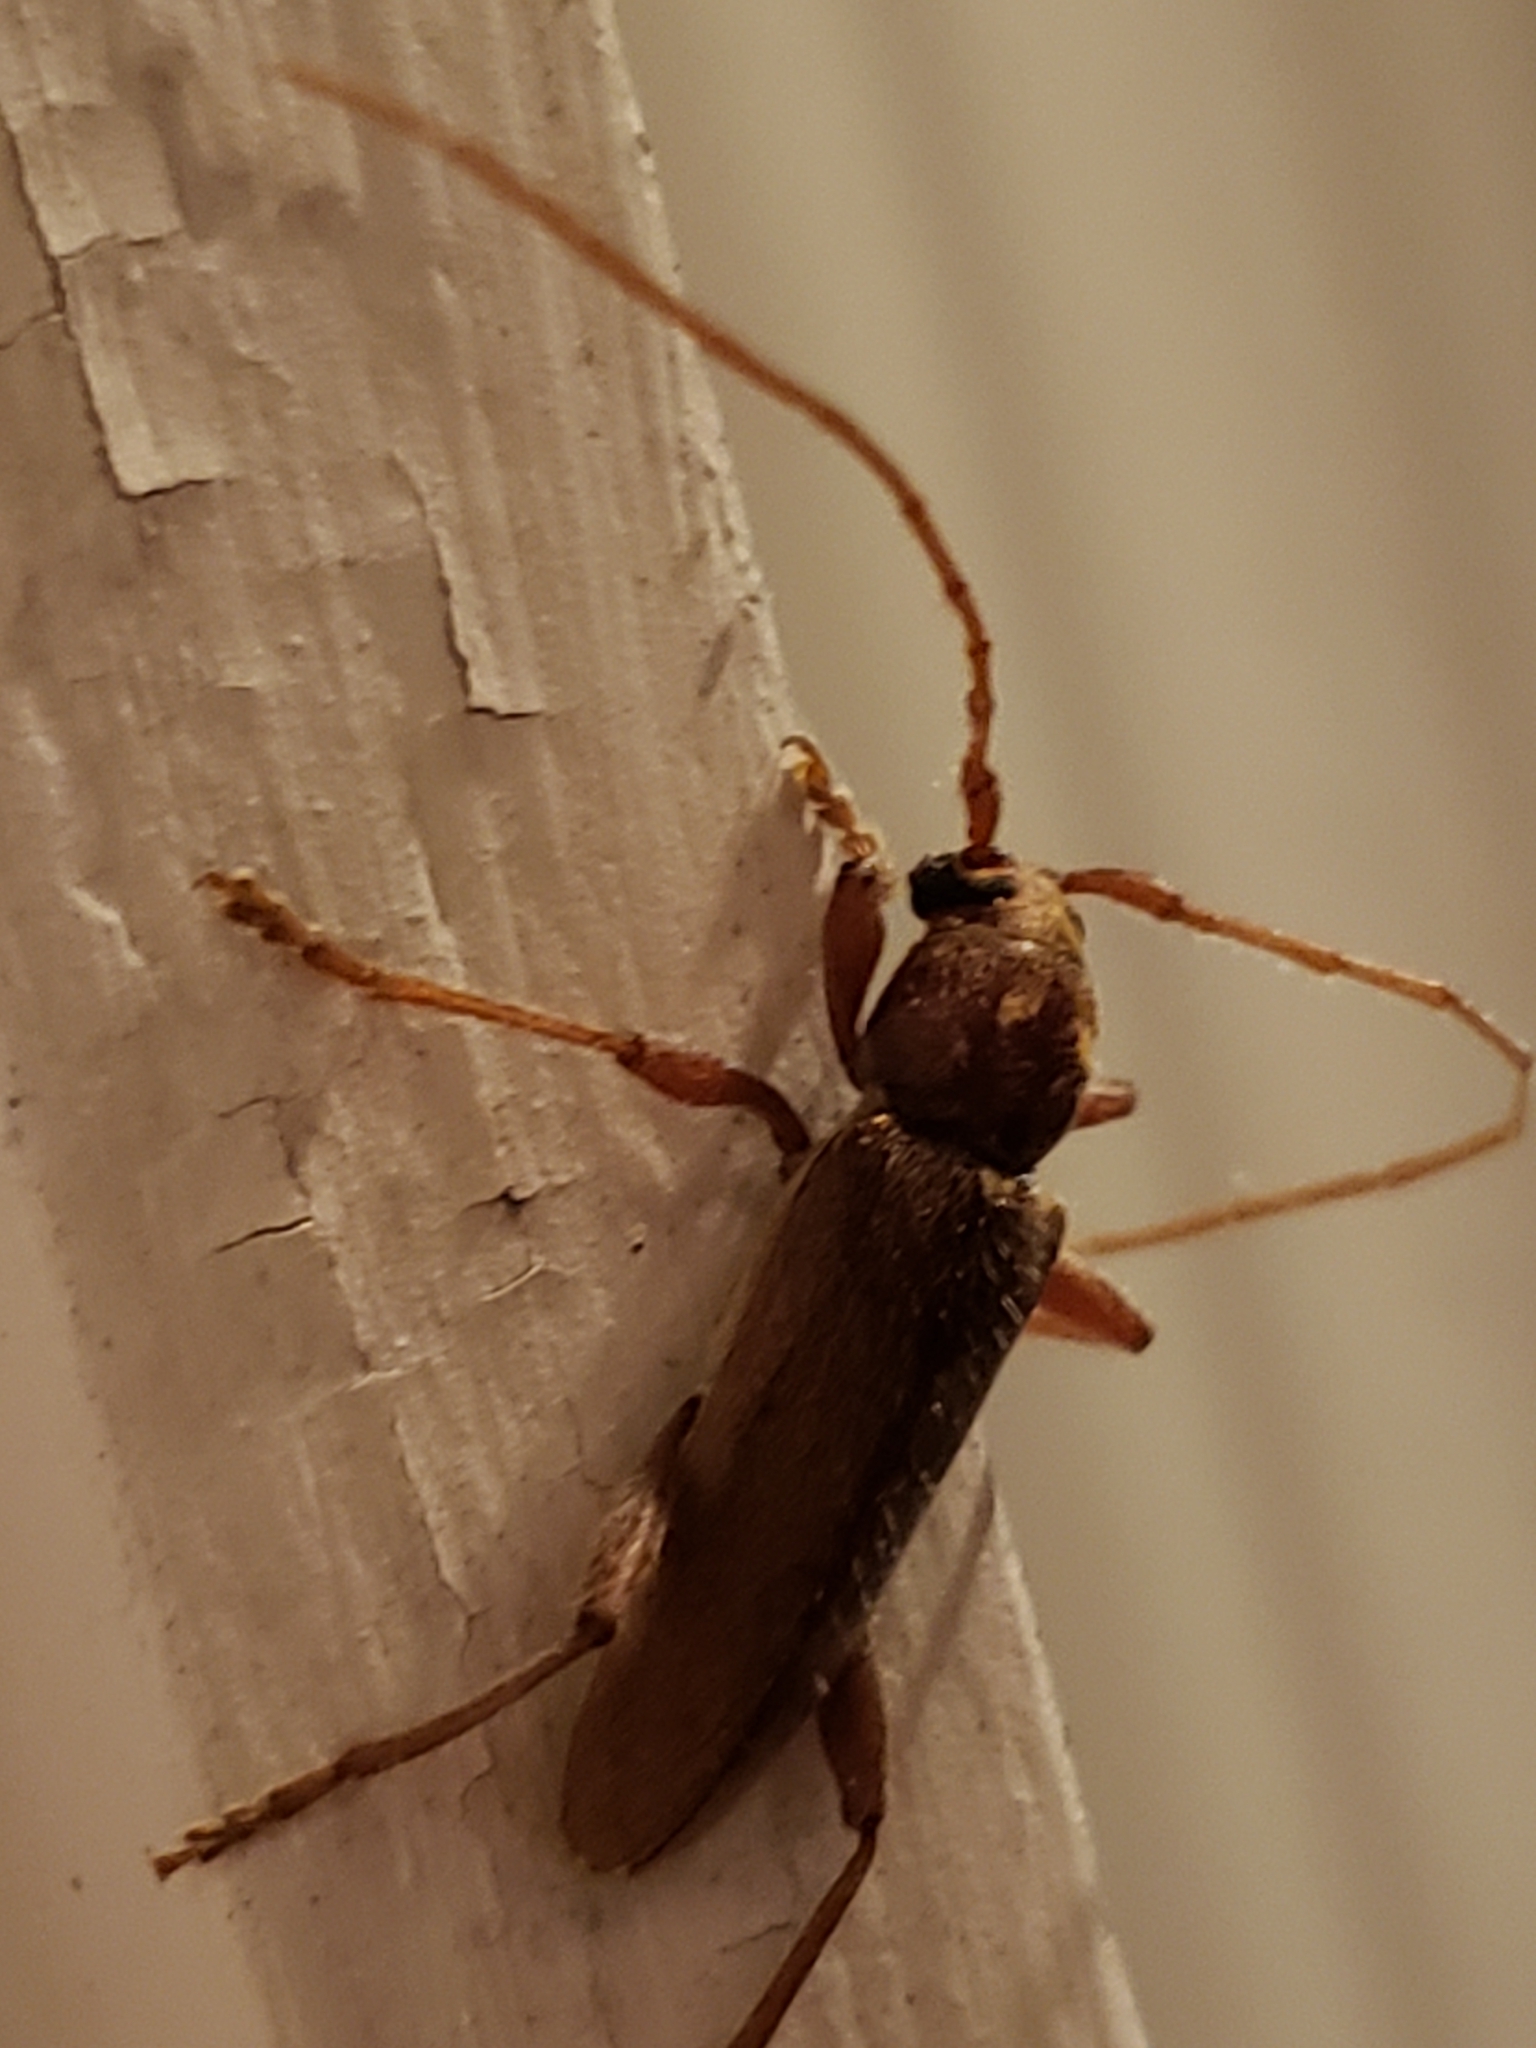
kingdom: Animalia
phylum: Arthropoda
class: Insecta
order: Coleoptera
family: Cerambycidae
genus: Hesperophanes
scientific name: Hesperophanes pubescens
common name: Longhorned wood-boring beetle
